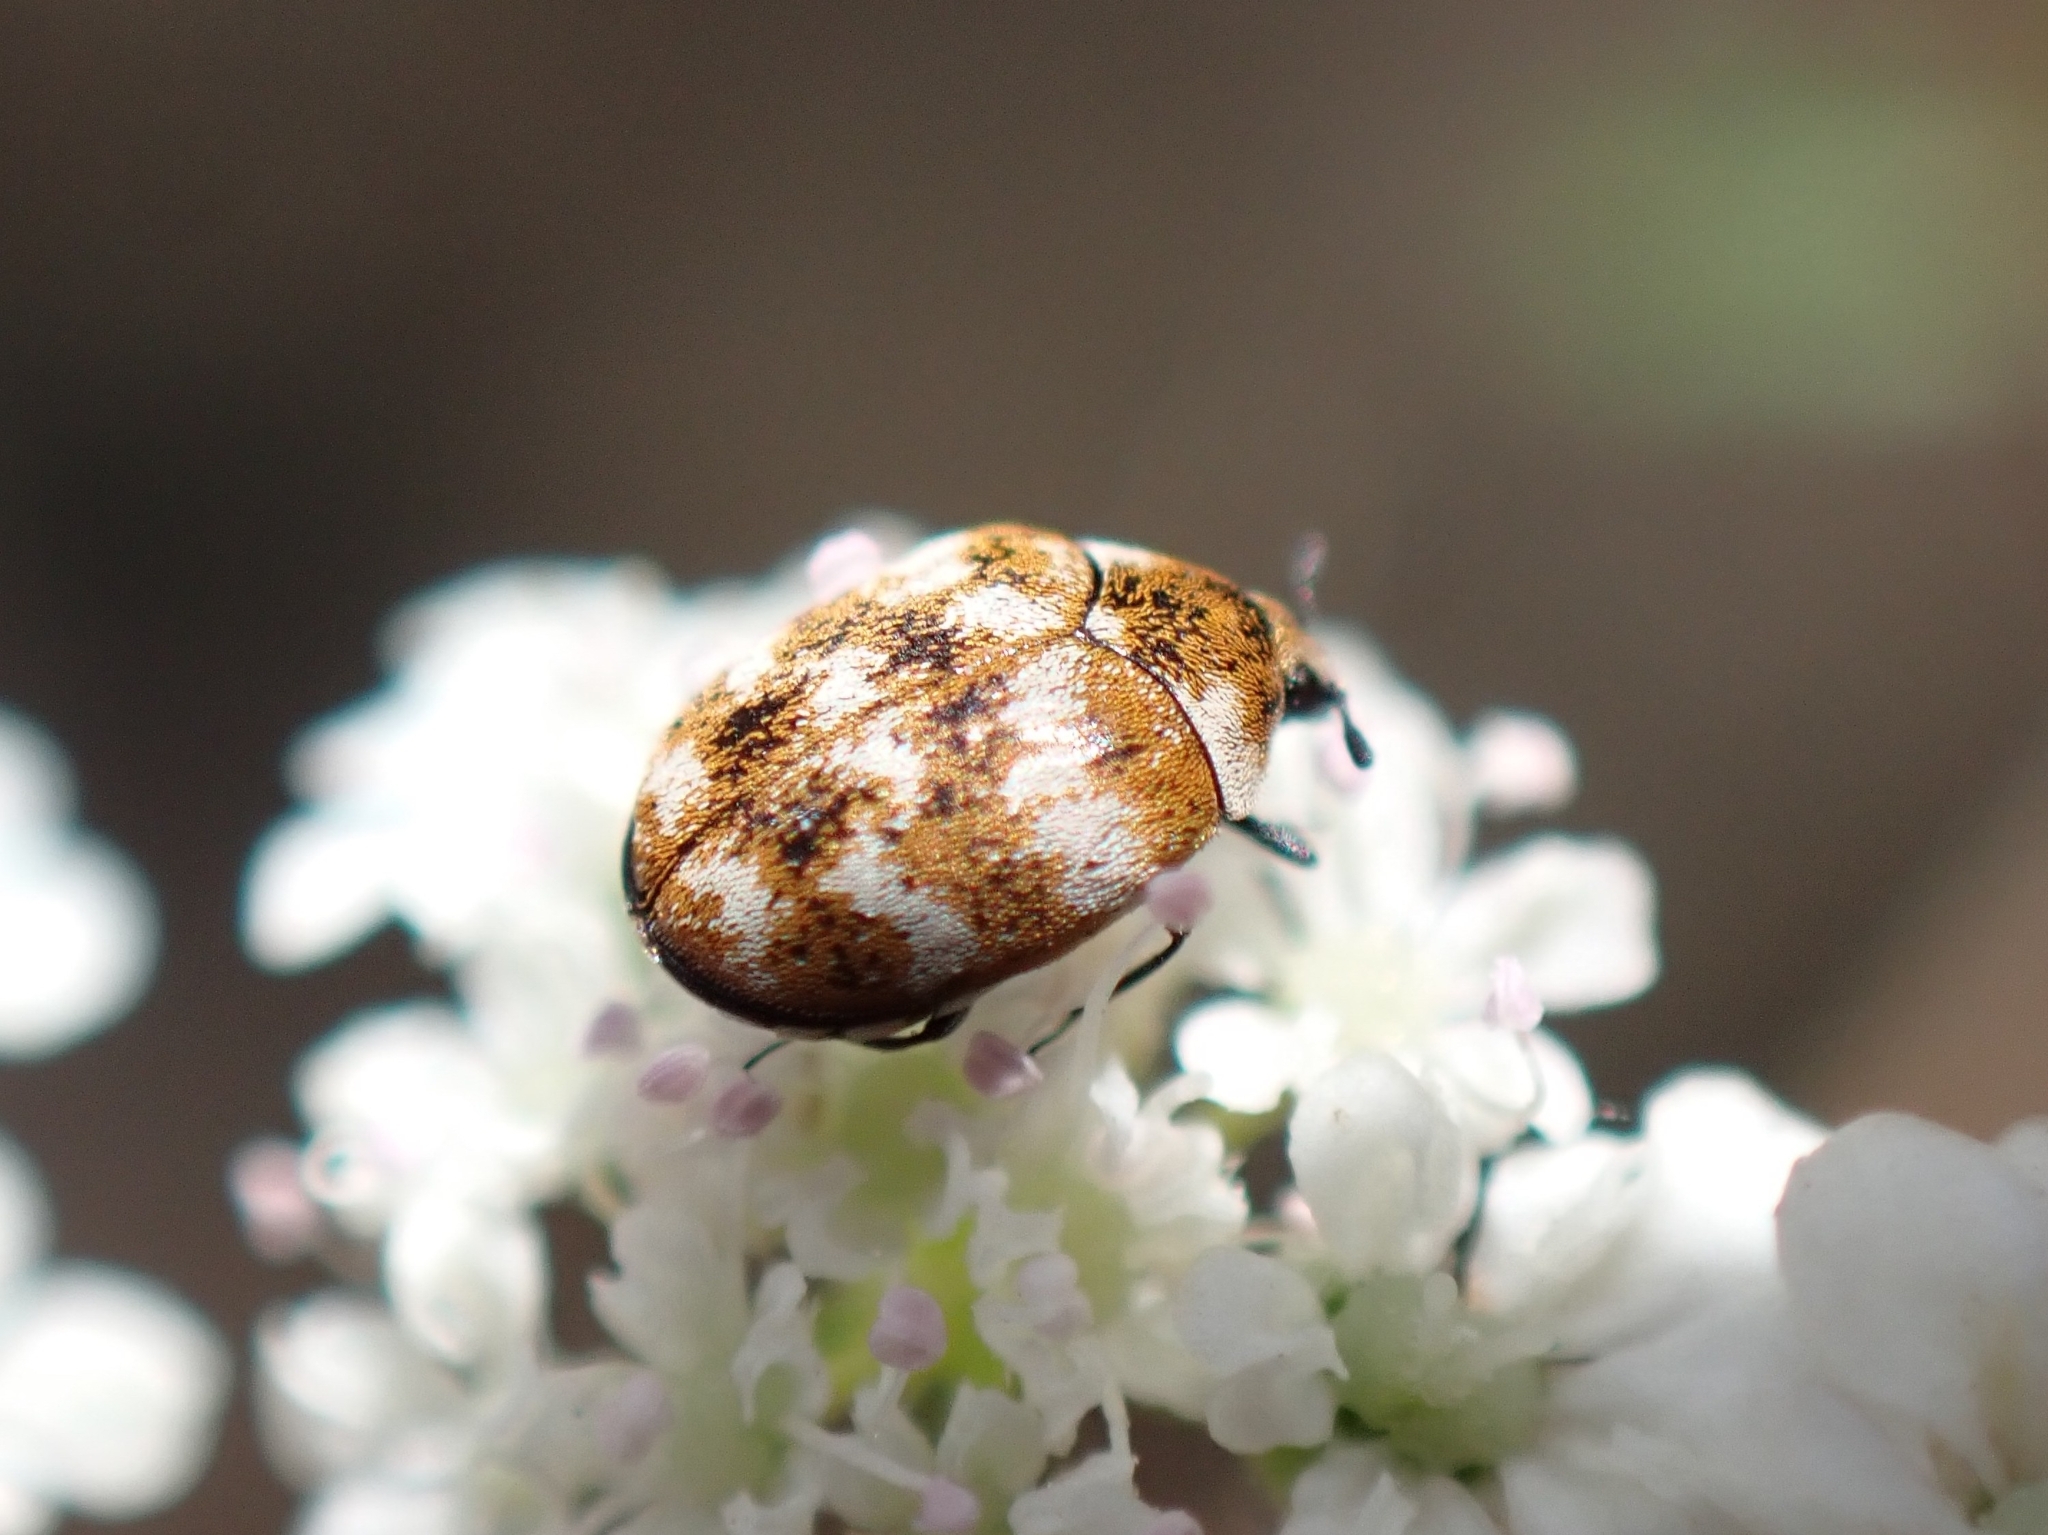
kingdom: Animalia
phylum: Arthropoda
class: Insecta
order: Coleoptera
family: Dermestidae
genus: Anthrenus
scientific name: Anthrenus verbasci
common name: Varied carpet beetle
